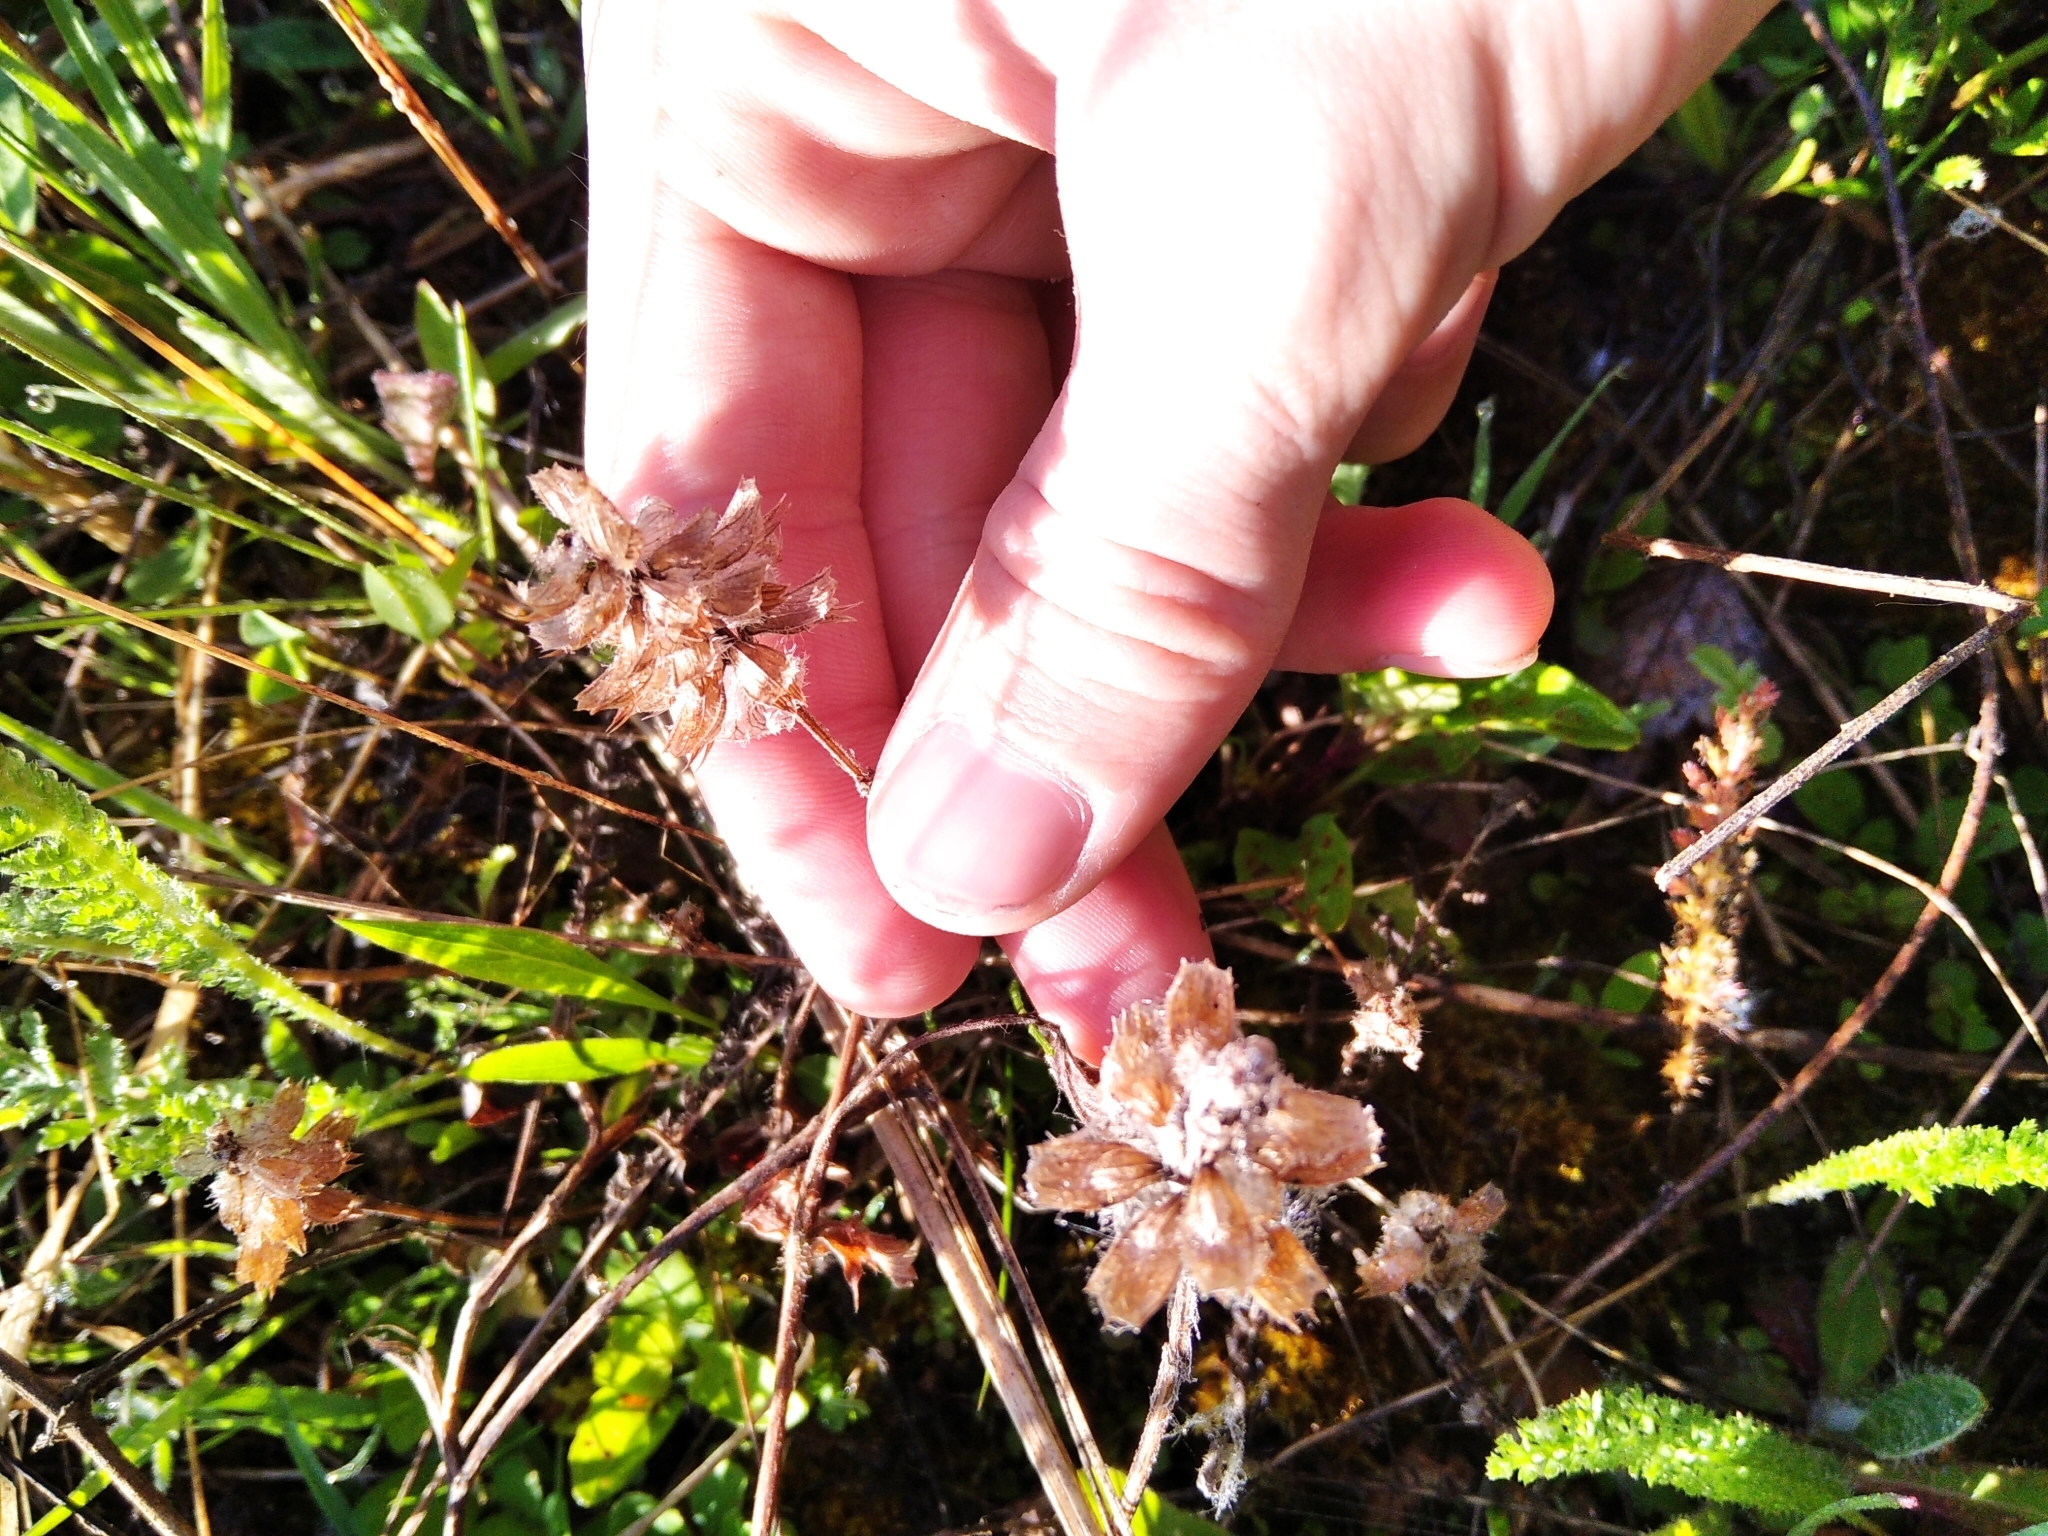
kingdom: Plantae
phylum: Tracheophyta
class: Magnoliopsida
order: Lamiales
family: Lamiaceae
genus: Prunella
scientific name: Prunella vulgaris
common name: Heal-all
